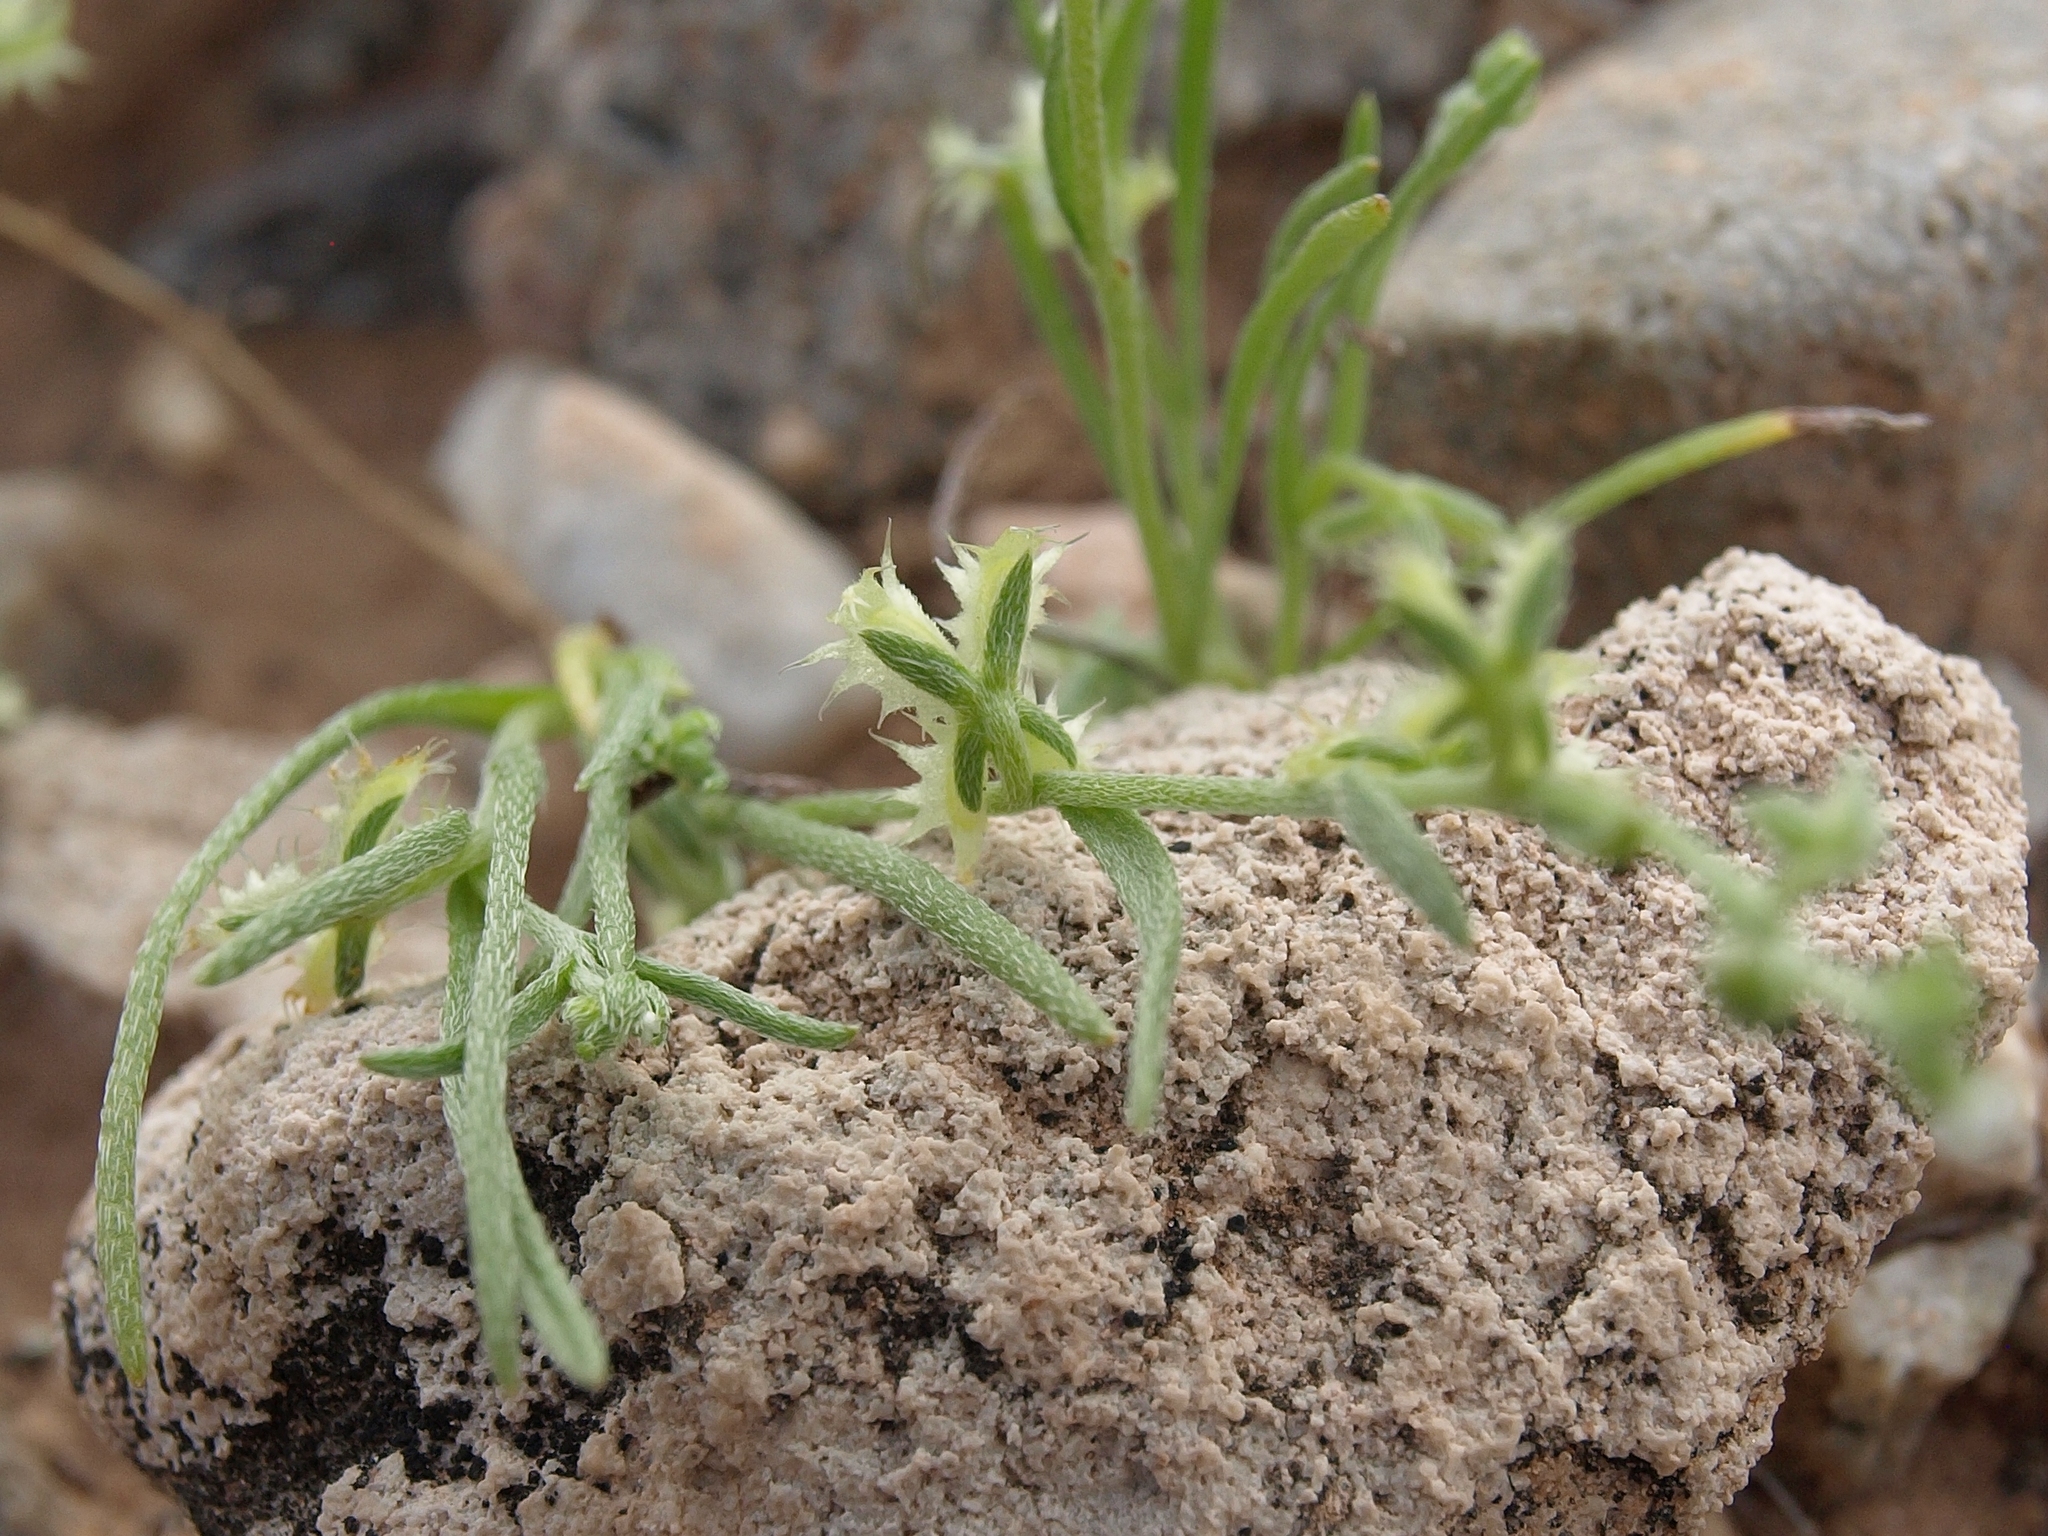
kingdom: Plantae
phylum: Tracheophyta
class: Magnoliopsida
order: Boraginales
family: Boraginaceae
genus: Pectocarya
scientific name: Pectocarya platycarpa
